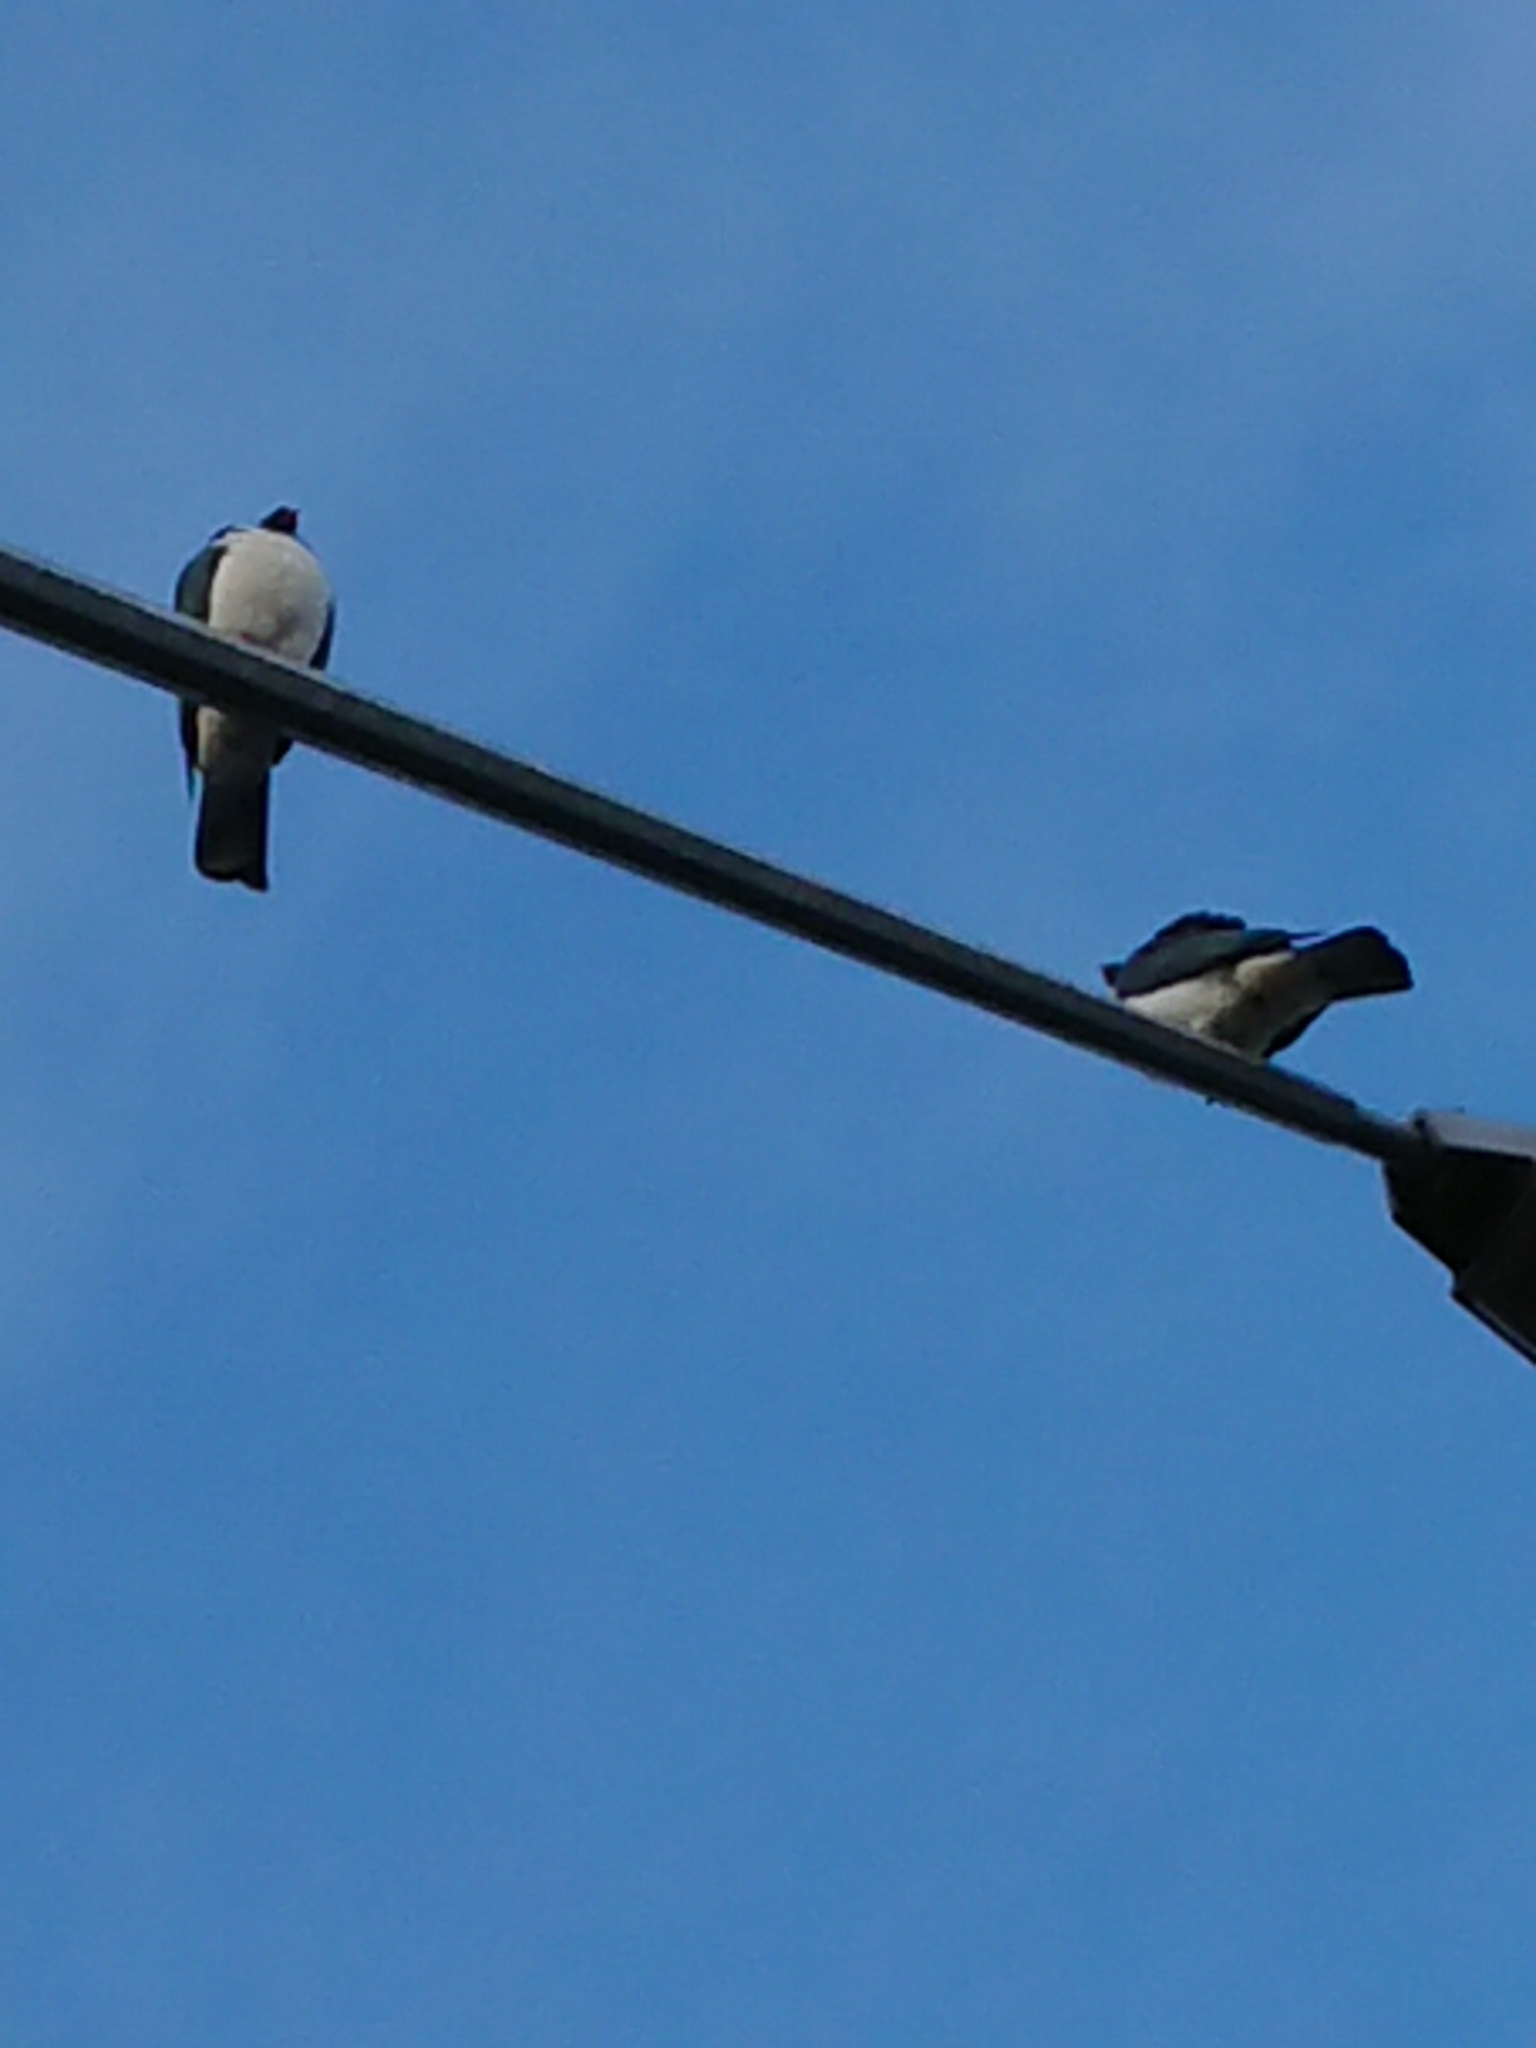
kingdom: Animalia
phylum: Chordata
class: Aves
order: Columbiformes
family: Columbidae
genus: Hemiphaga
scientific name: Hemiphaga novaeseelandiae
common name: New zealand pigeon
